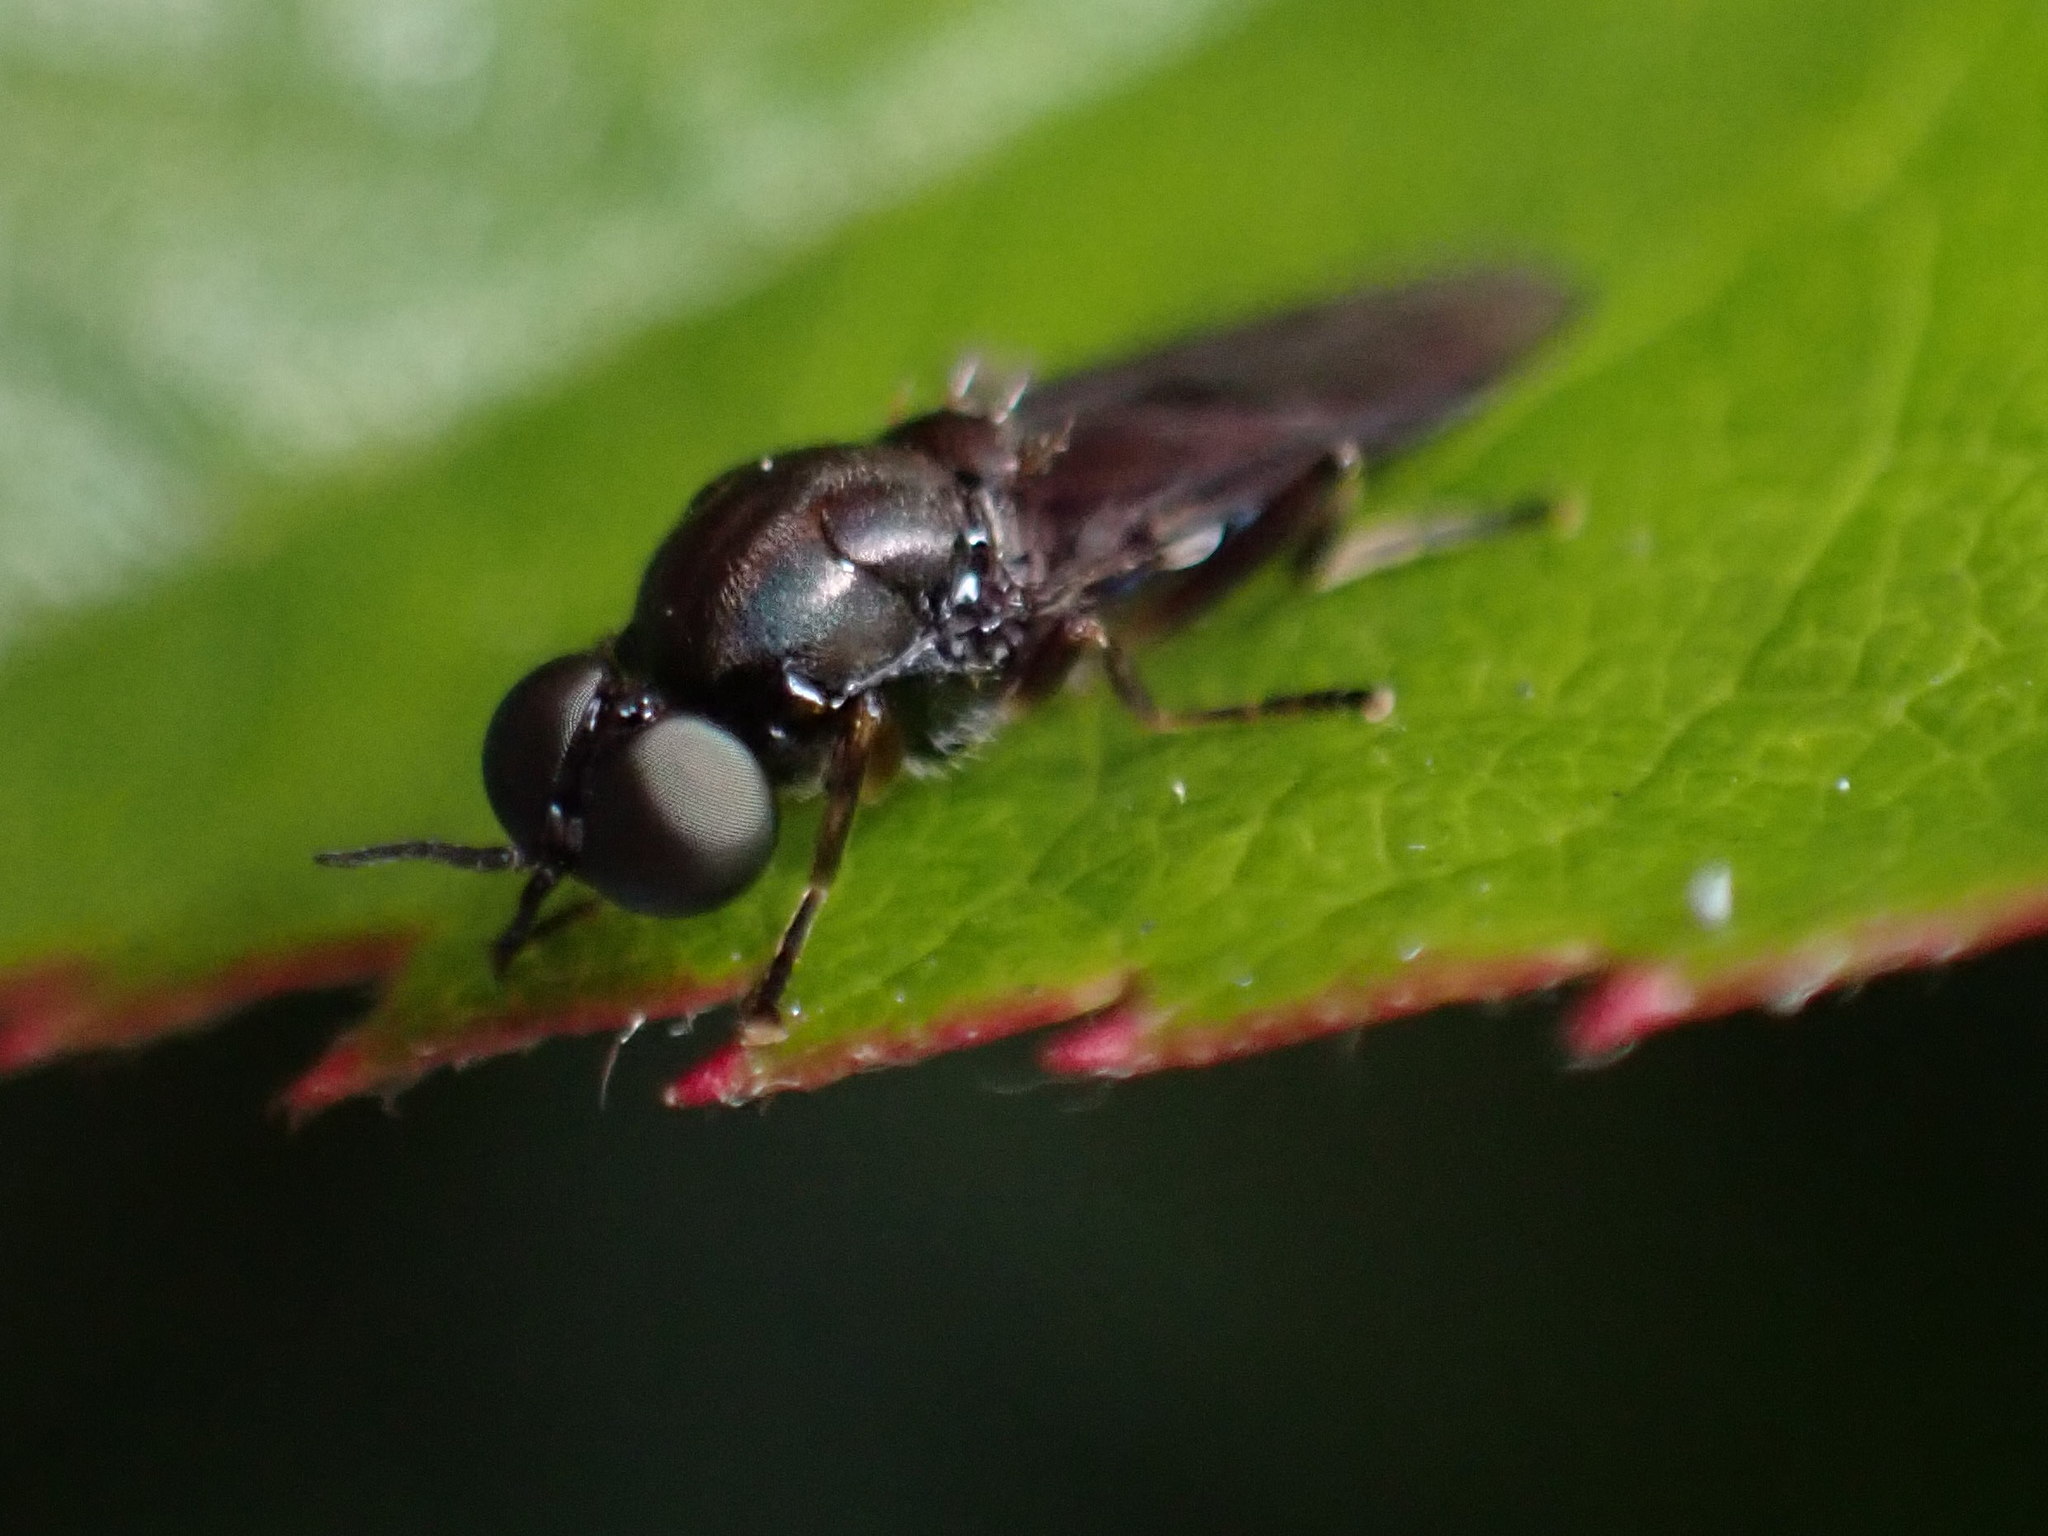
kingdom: Animalia
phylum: Arthropoda
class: Insecta
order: Diptera
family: Stratiomyidae
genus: Zealandoberis
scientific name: Zealandoberis violacea
